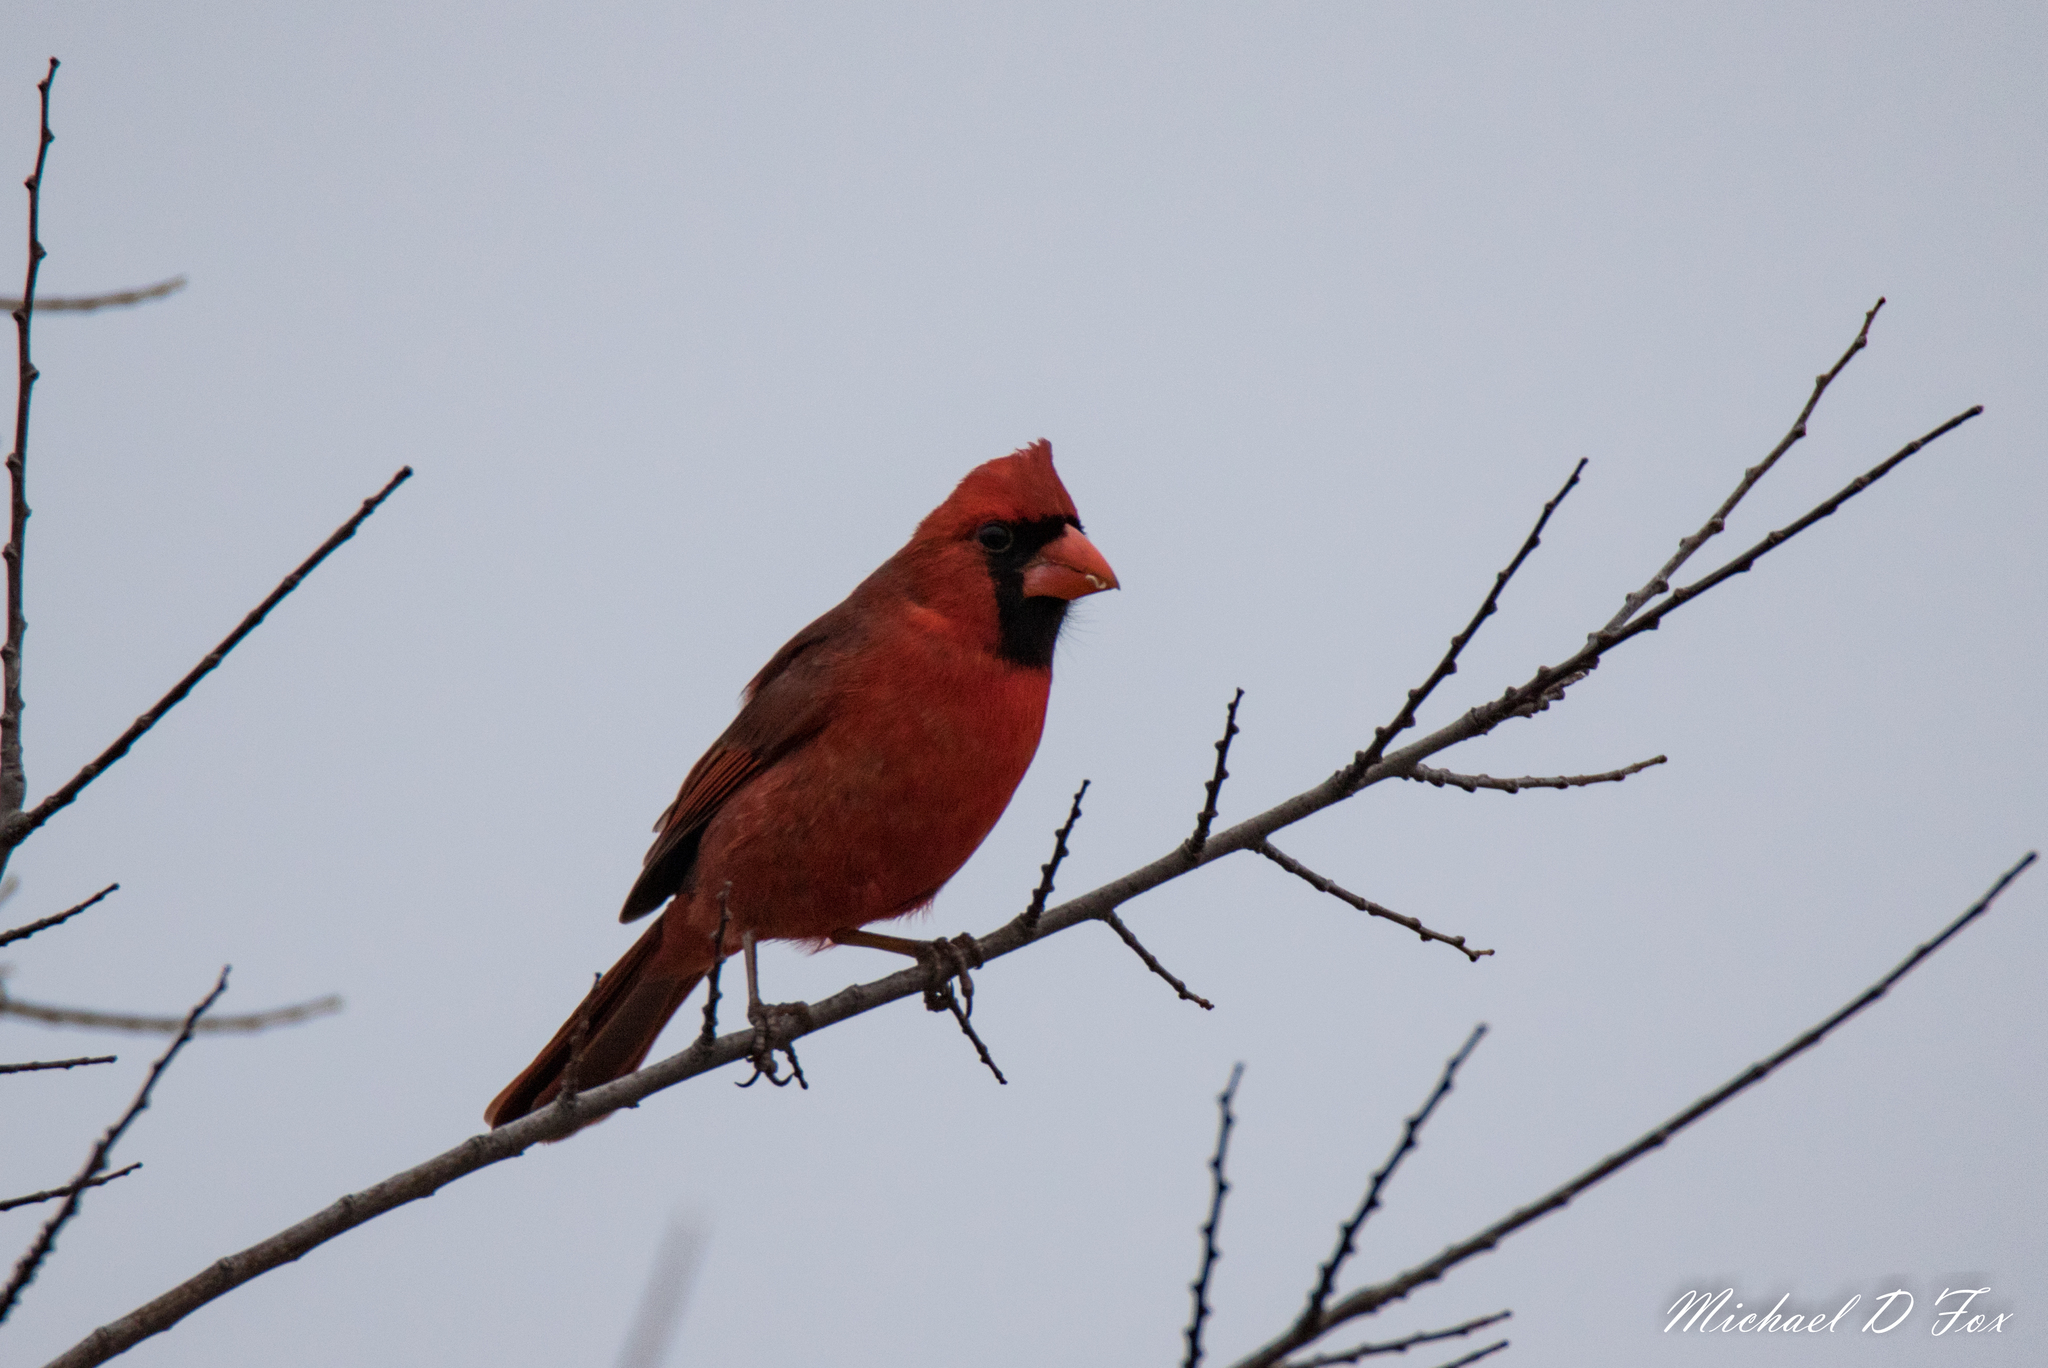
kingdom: Animalia
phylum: Chordata
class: Aves
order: Passeriformes
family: Cardinalidae
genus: Cardinalis
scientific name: Cardinalis cardinalis
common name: Northern cardinal
